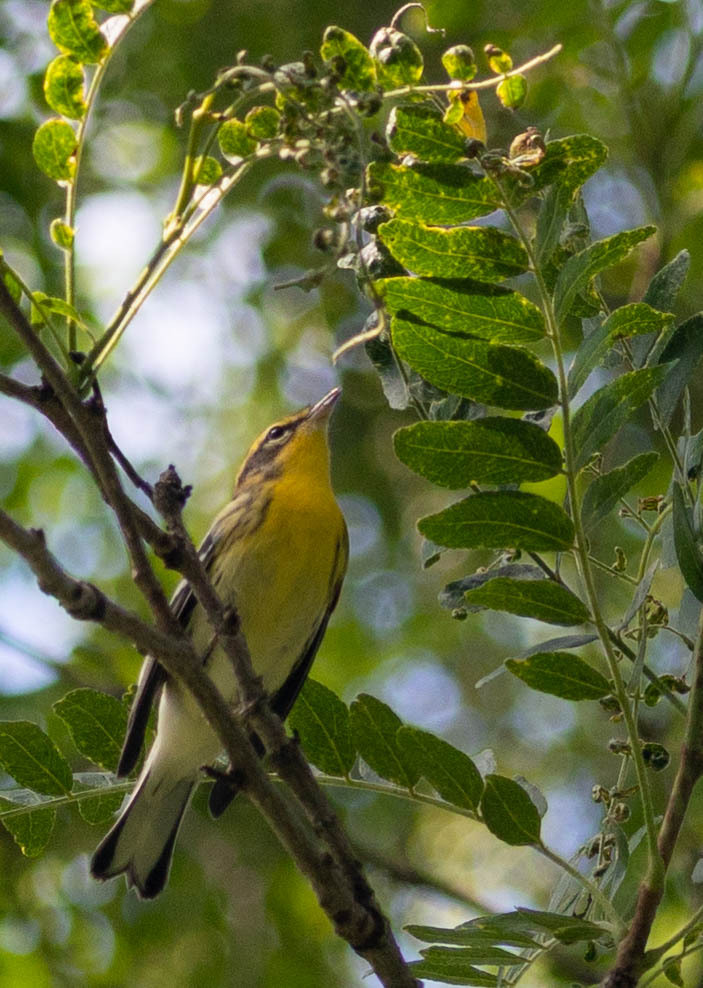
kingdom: Animalia
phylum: Chordata
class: Aves
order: Passeriformes
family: Parulidae
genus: Setophaga
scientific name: Setophaga fusca
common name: Blackburnian warbler
